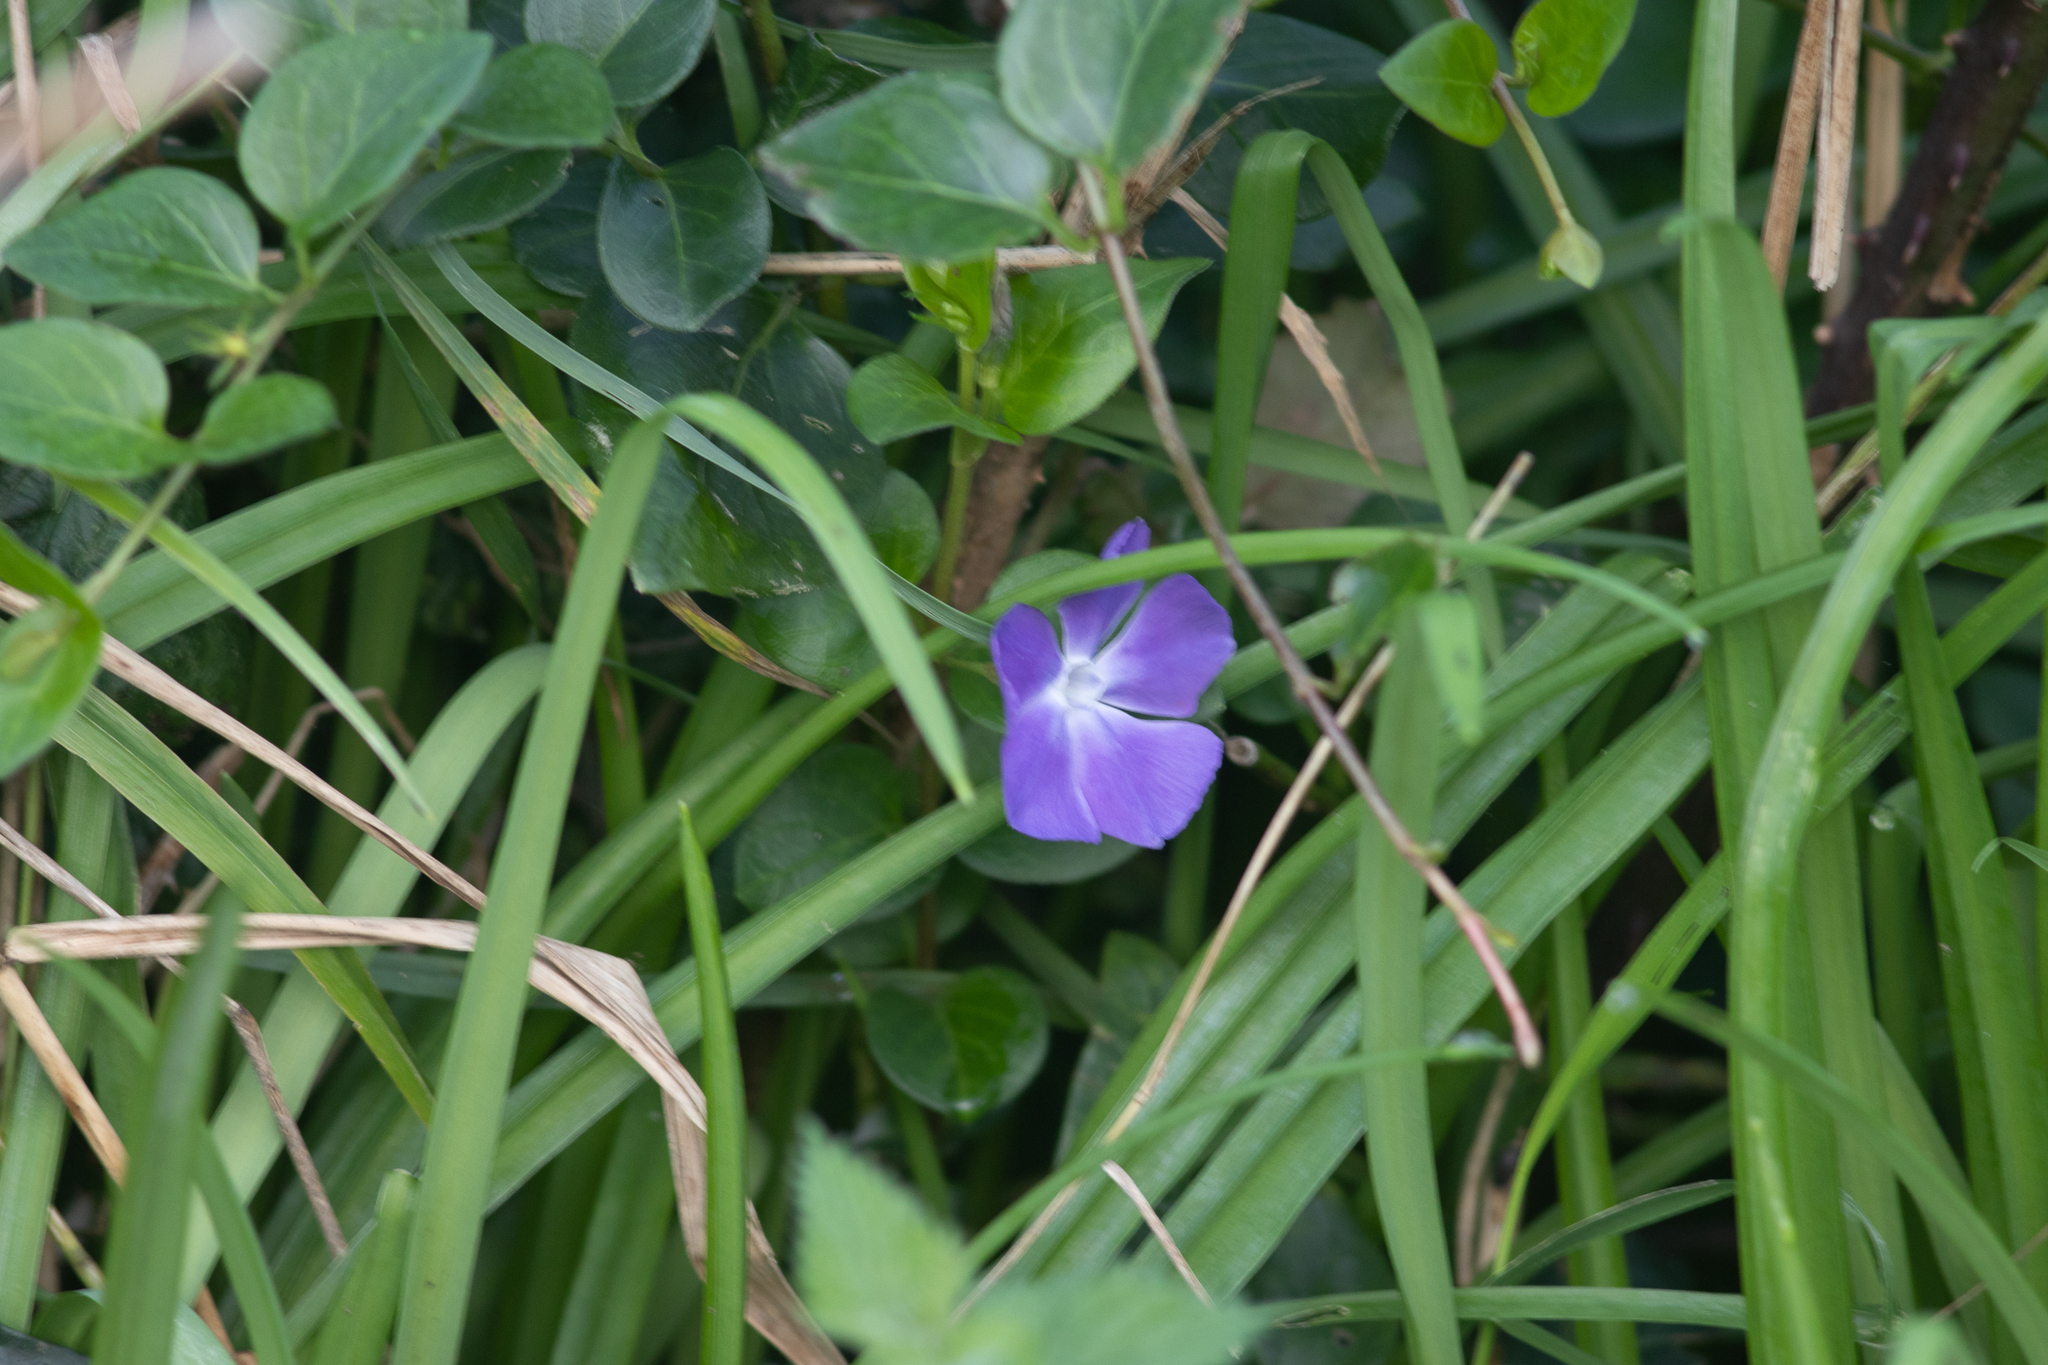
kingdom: Plantae
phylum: Tracheophyta
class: Magnoliopsida
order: Gentianales
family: Apocynaceae
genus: Vinca
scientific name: Vinca major
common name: Greater periwinkle
